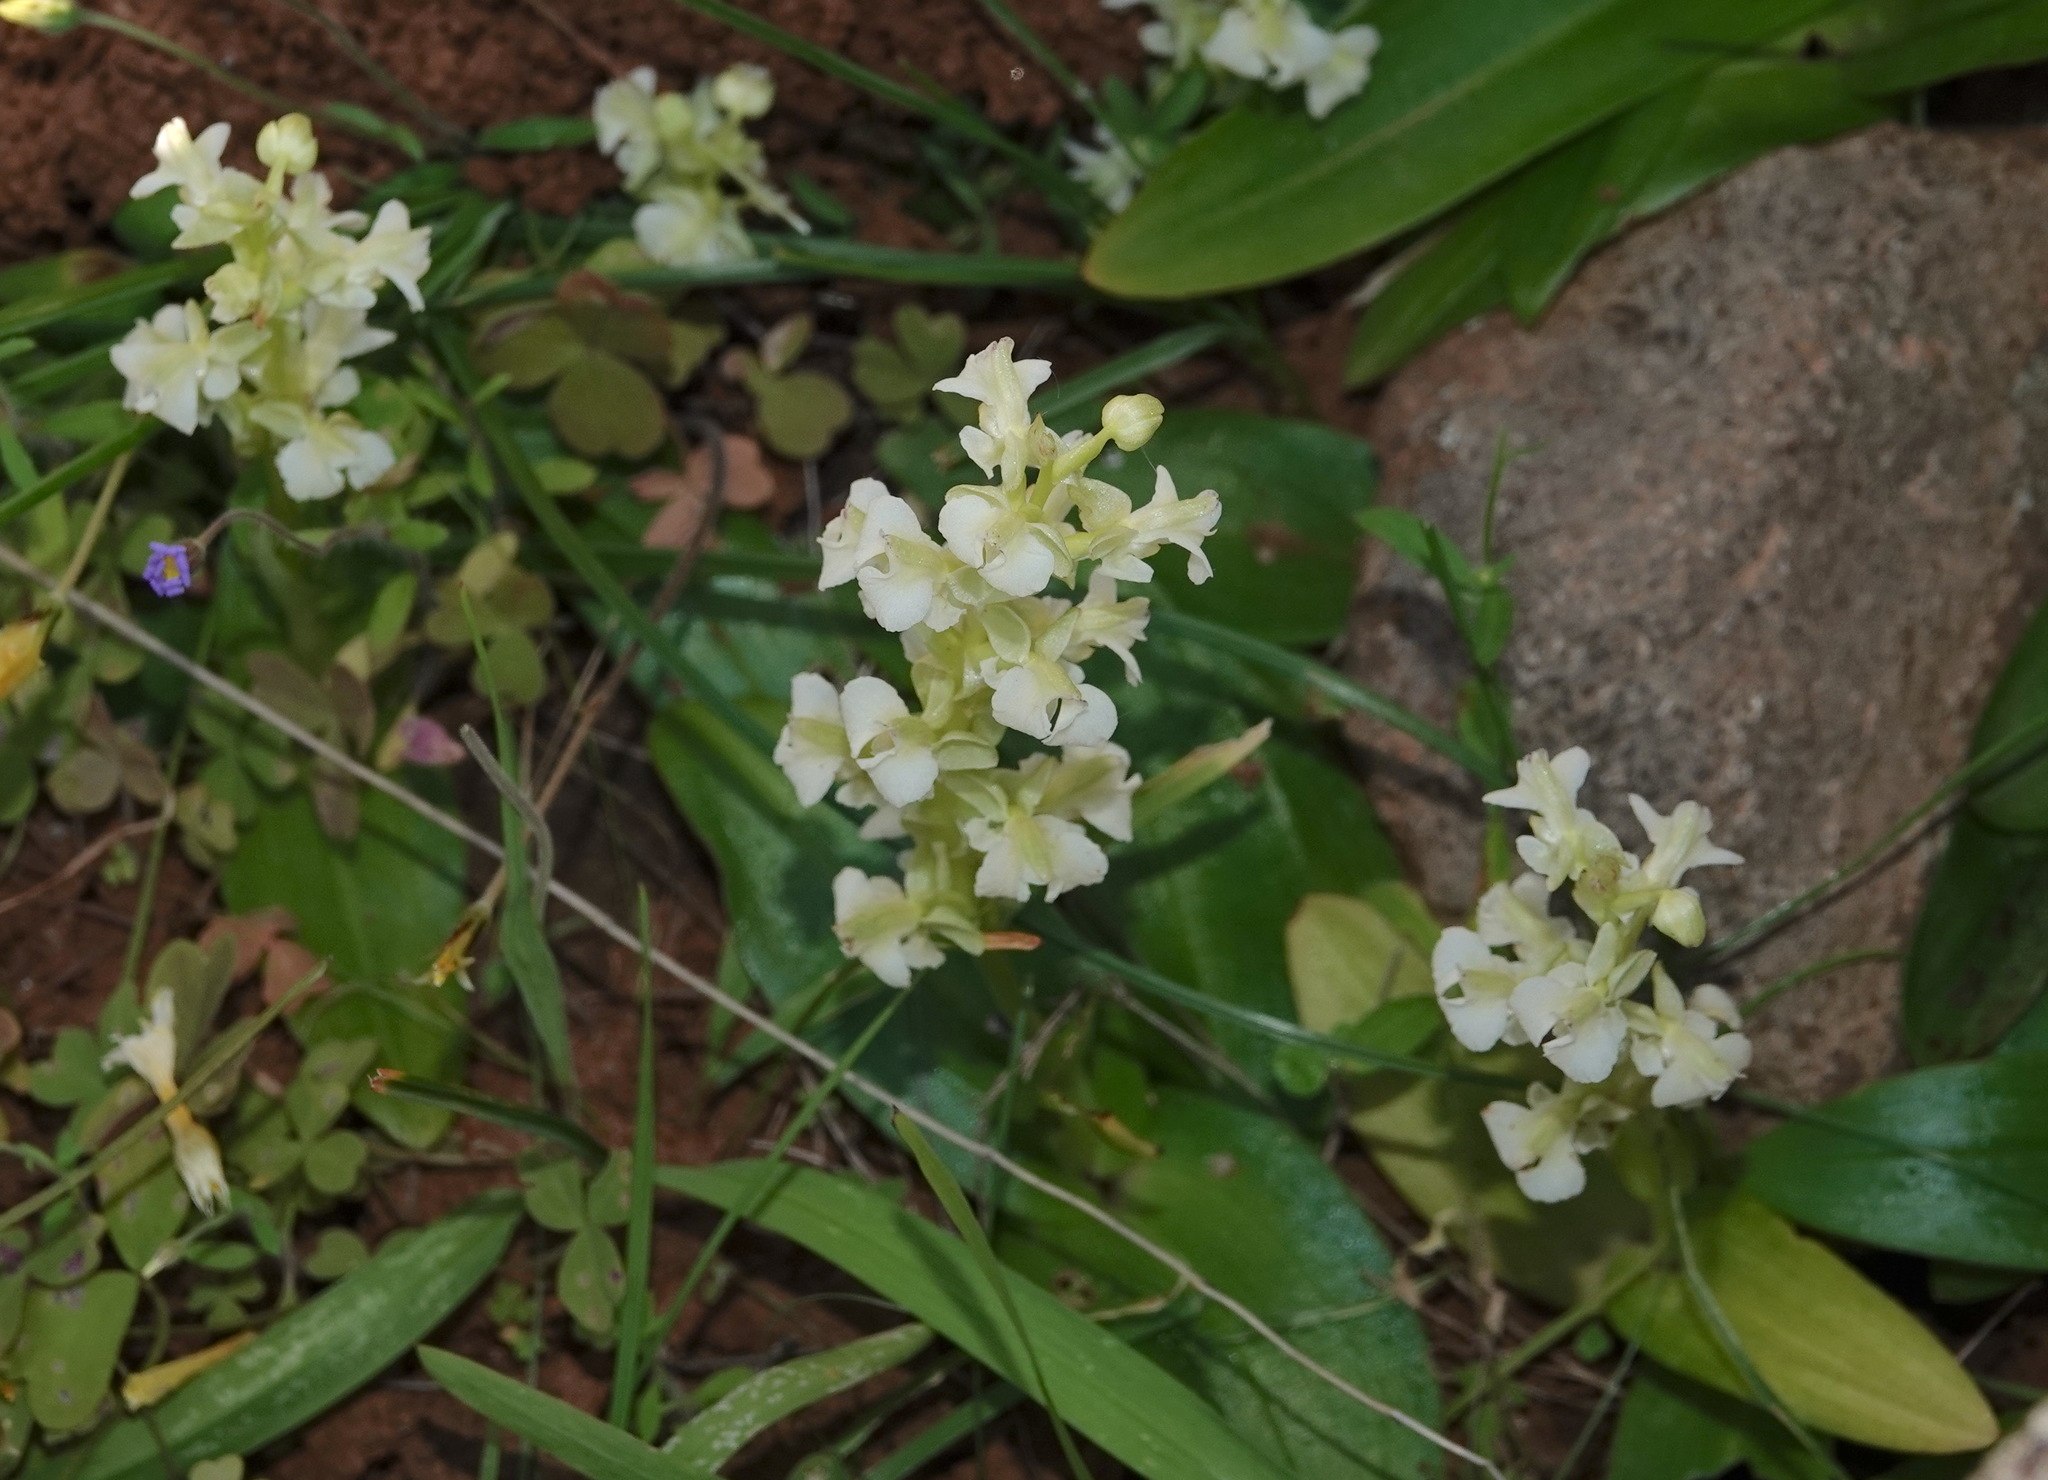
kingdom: Plantae
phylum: Tracheophyta
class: Liliopsida
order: Asparagales
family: Orchidaceae
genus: Pterygodium
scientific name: Pterygodium schelpei
